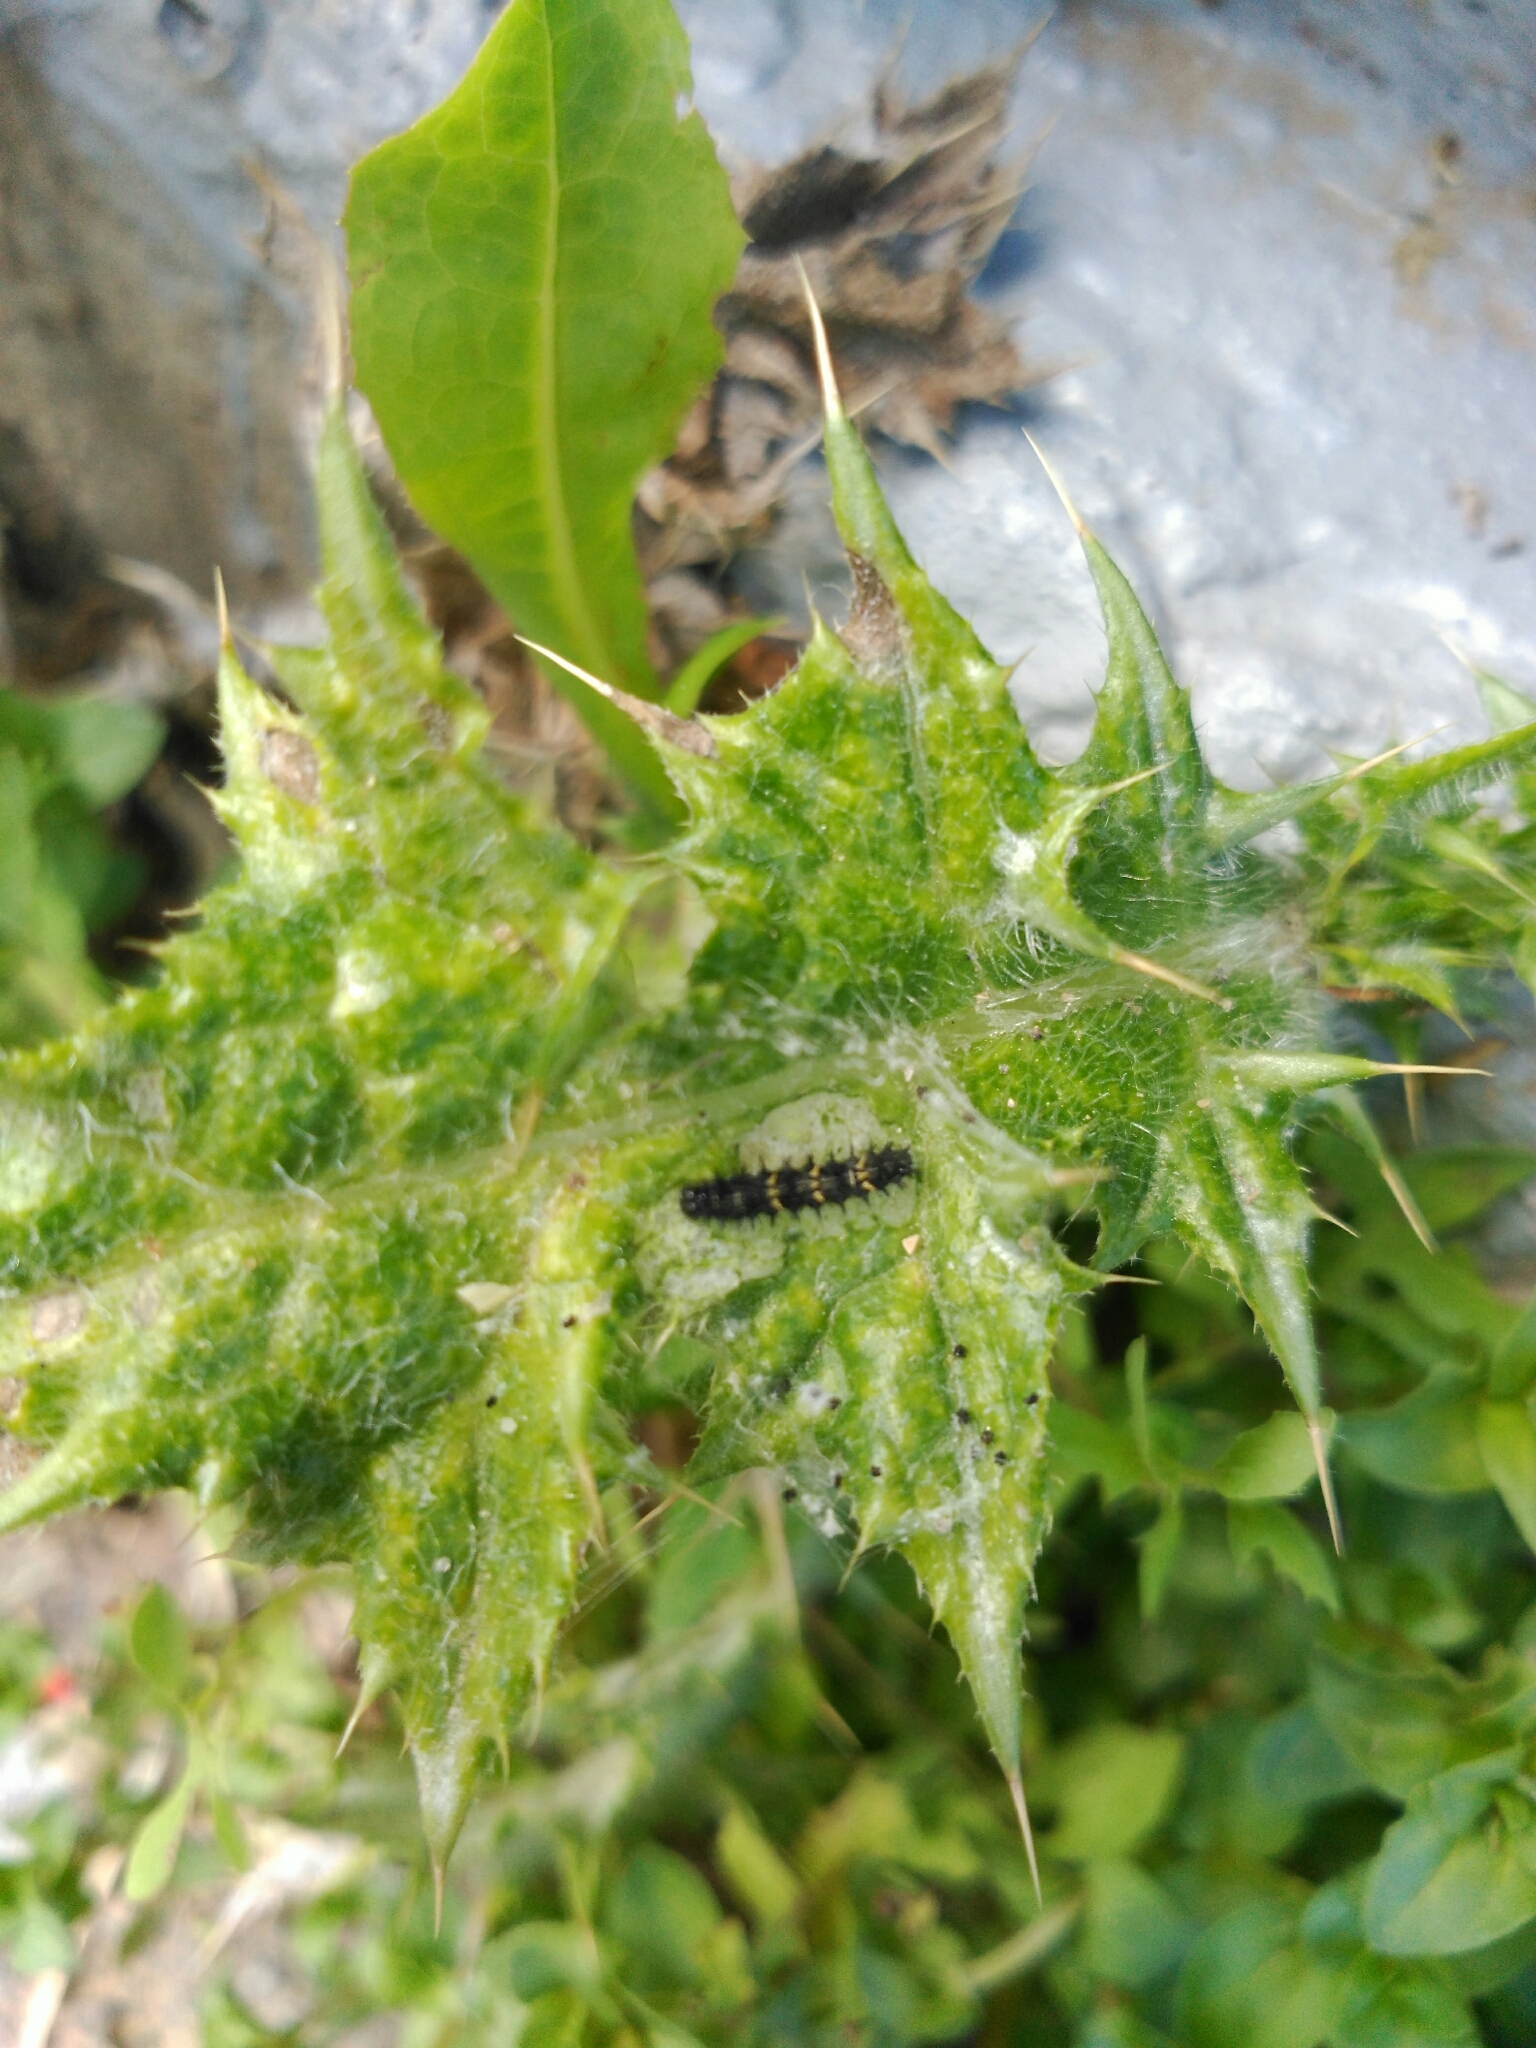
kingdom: Animalia
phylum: Arthropoda
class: Insecta
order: Lepidoptera
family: Nymphalidae
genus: Vanessa
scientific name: Vanessa cardui
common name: Painted lady
